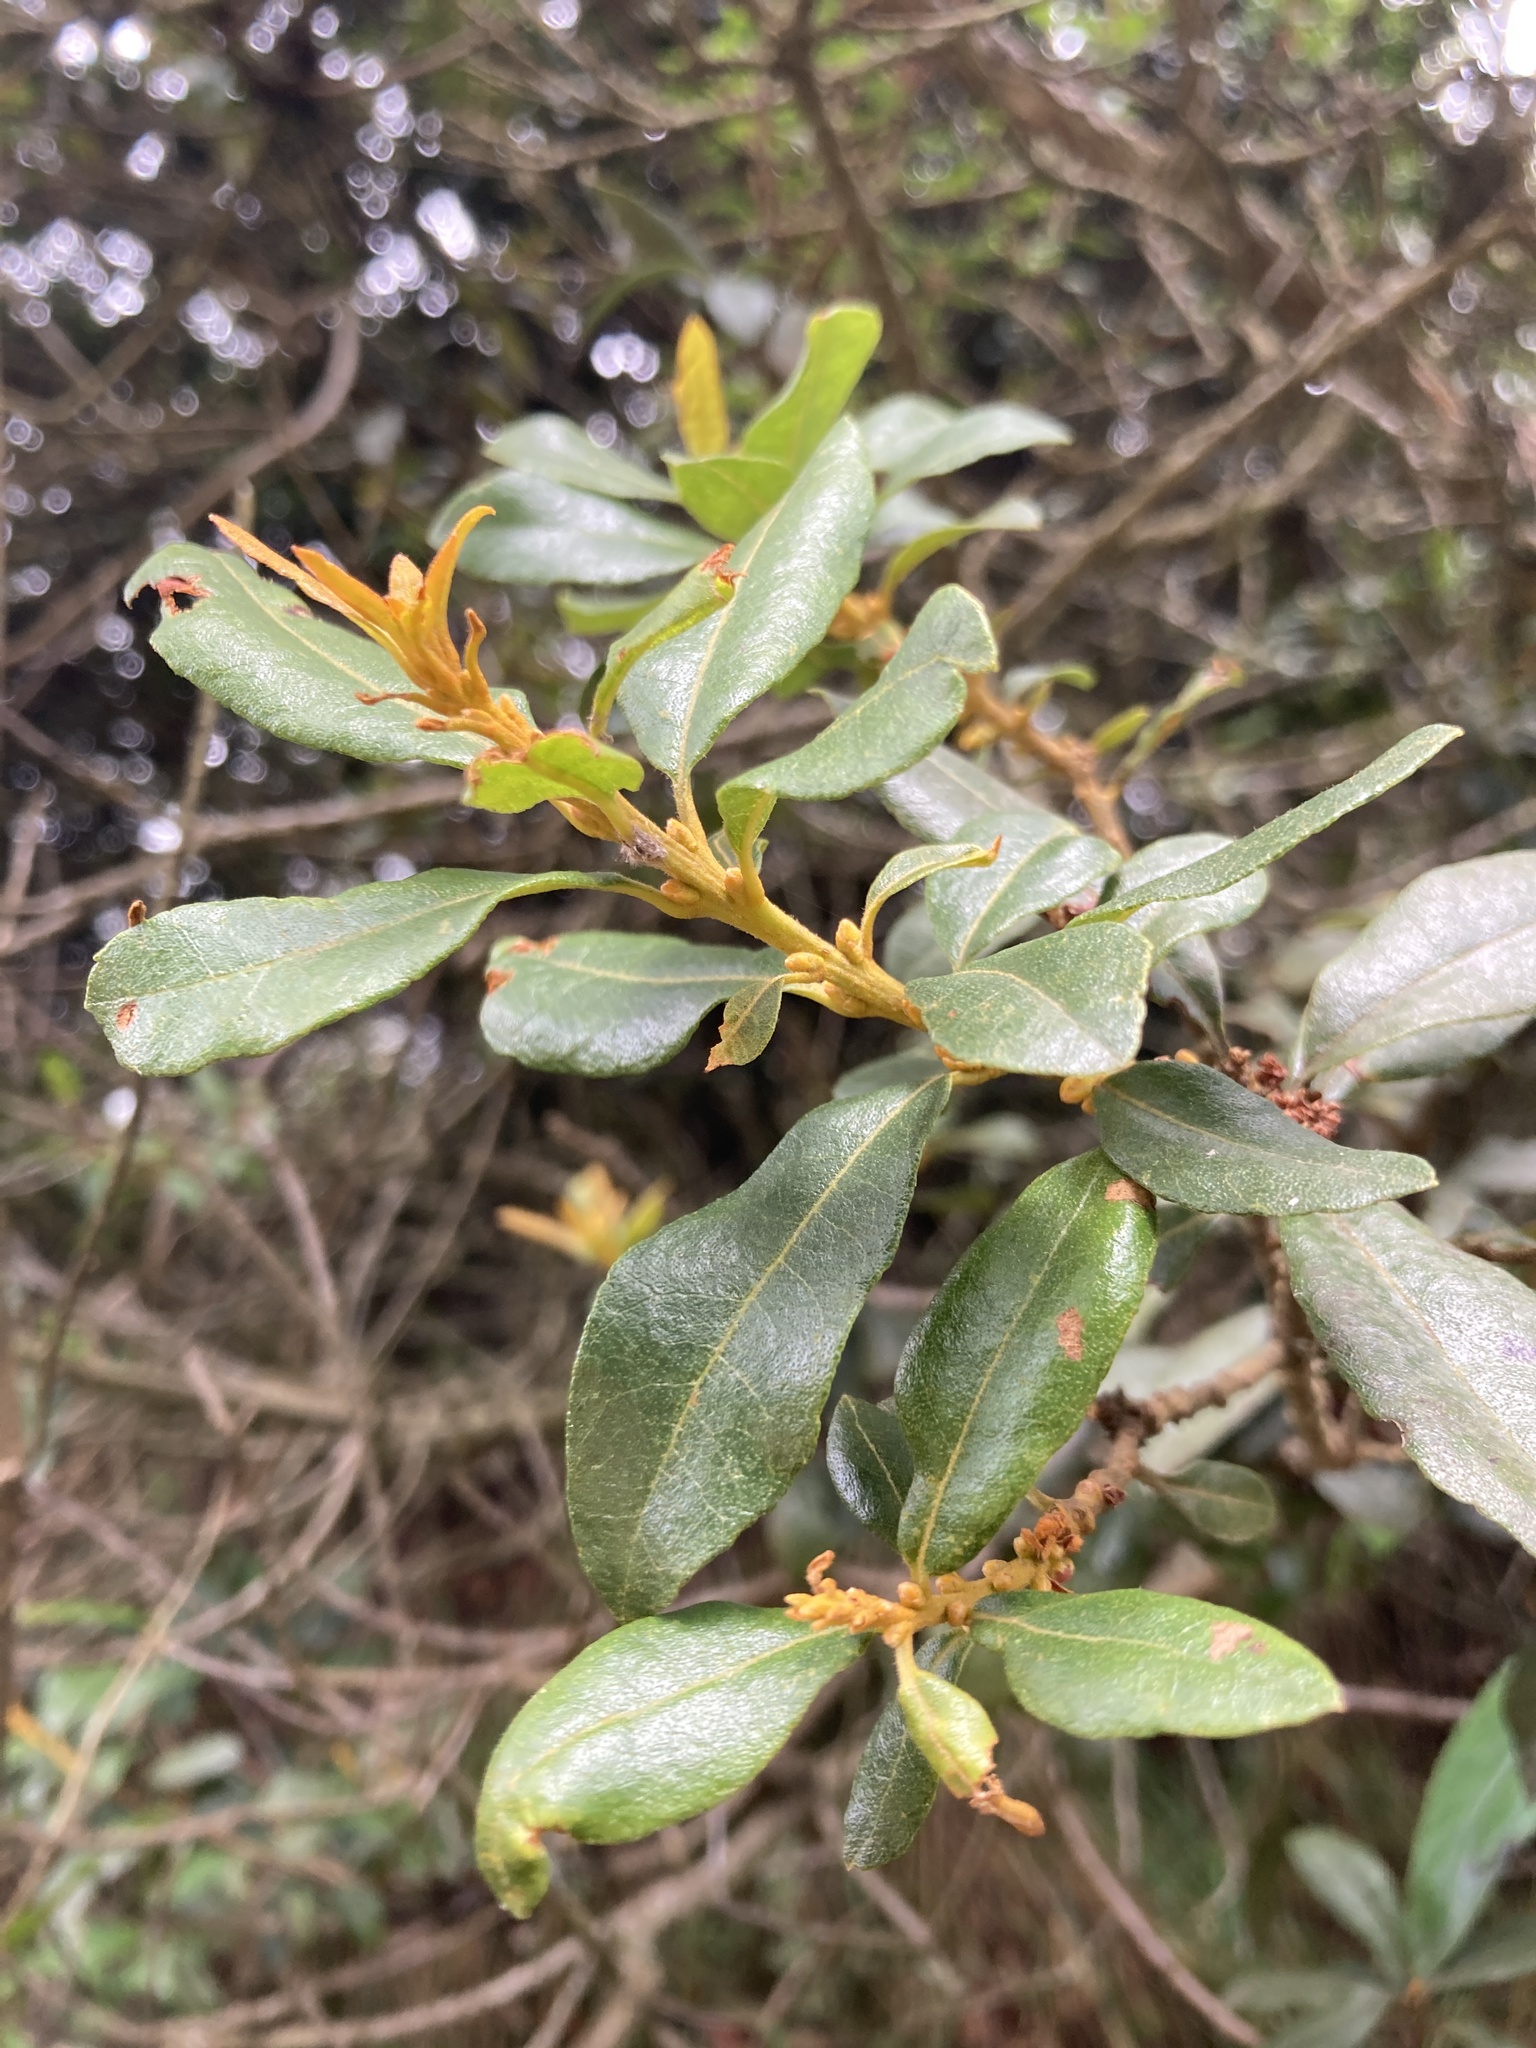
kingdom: Plantae
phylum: Tracheophyta
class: Magnoliopsida
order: Fagales
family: Myricaceae
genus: Morella
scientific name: Morella parvifolia
